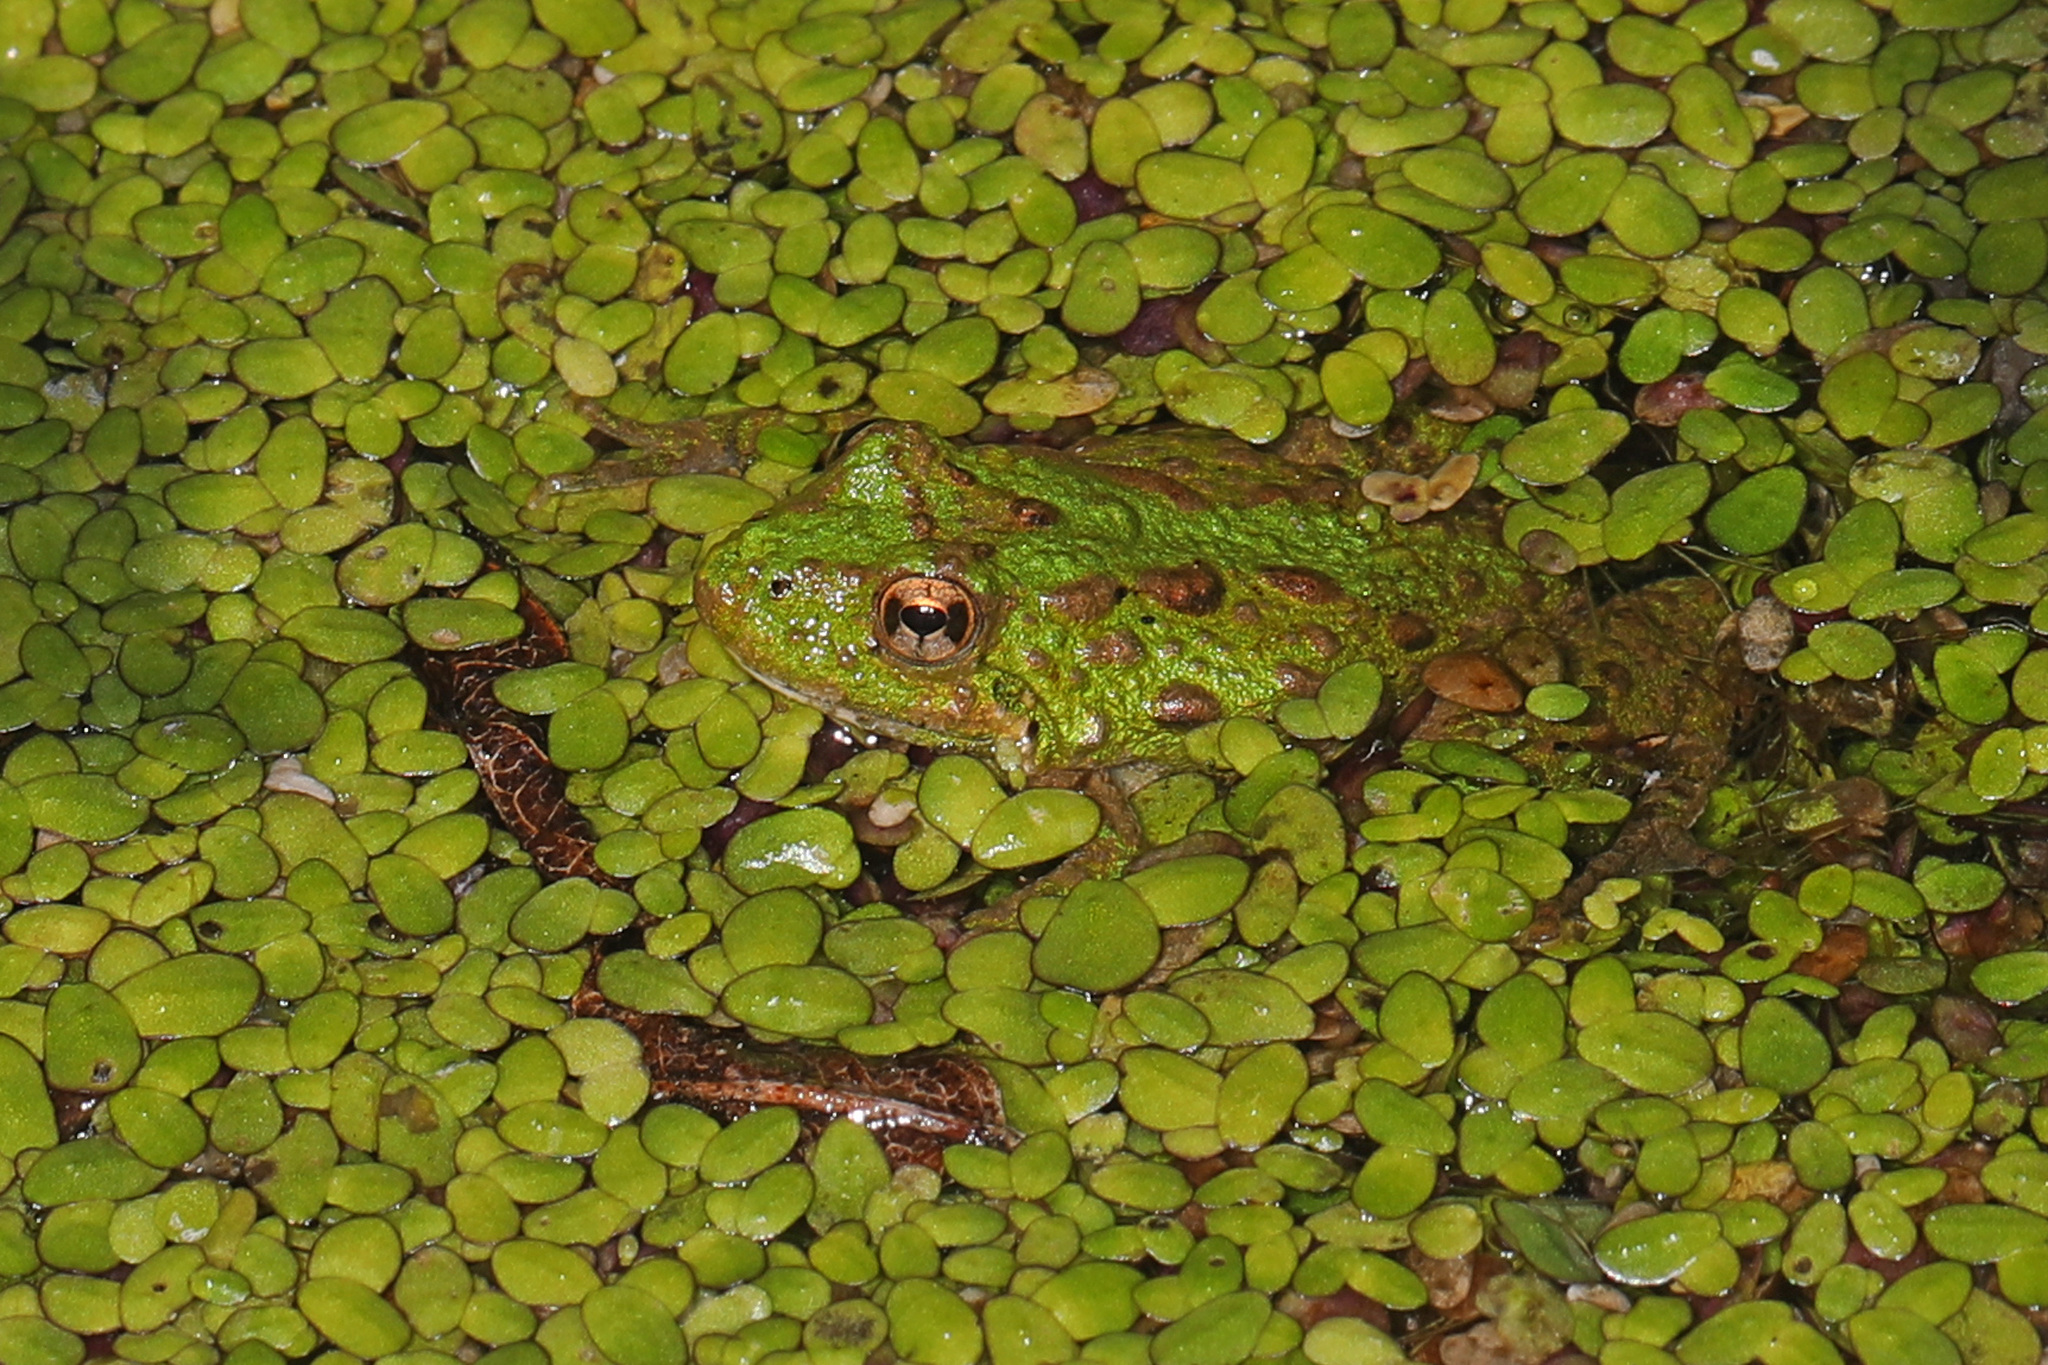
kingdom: Animalia
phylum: Chordata
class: Amphibia
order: Anura
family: Hylidae
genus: Acris
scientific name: Acris crepitans
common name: Northern cricket frog
